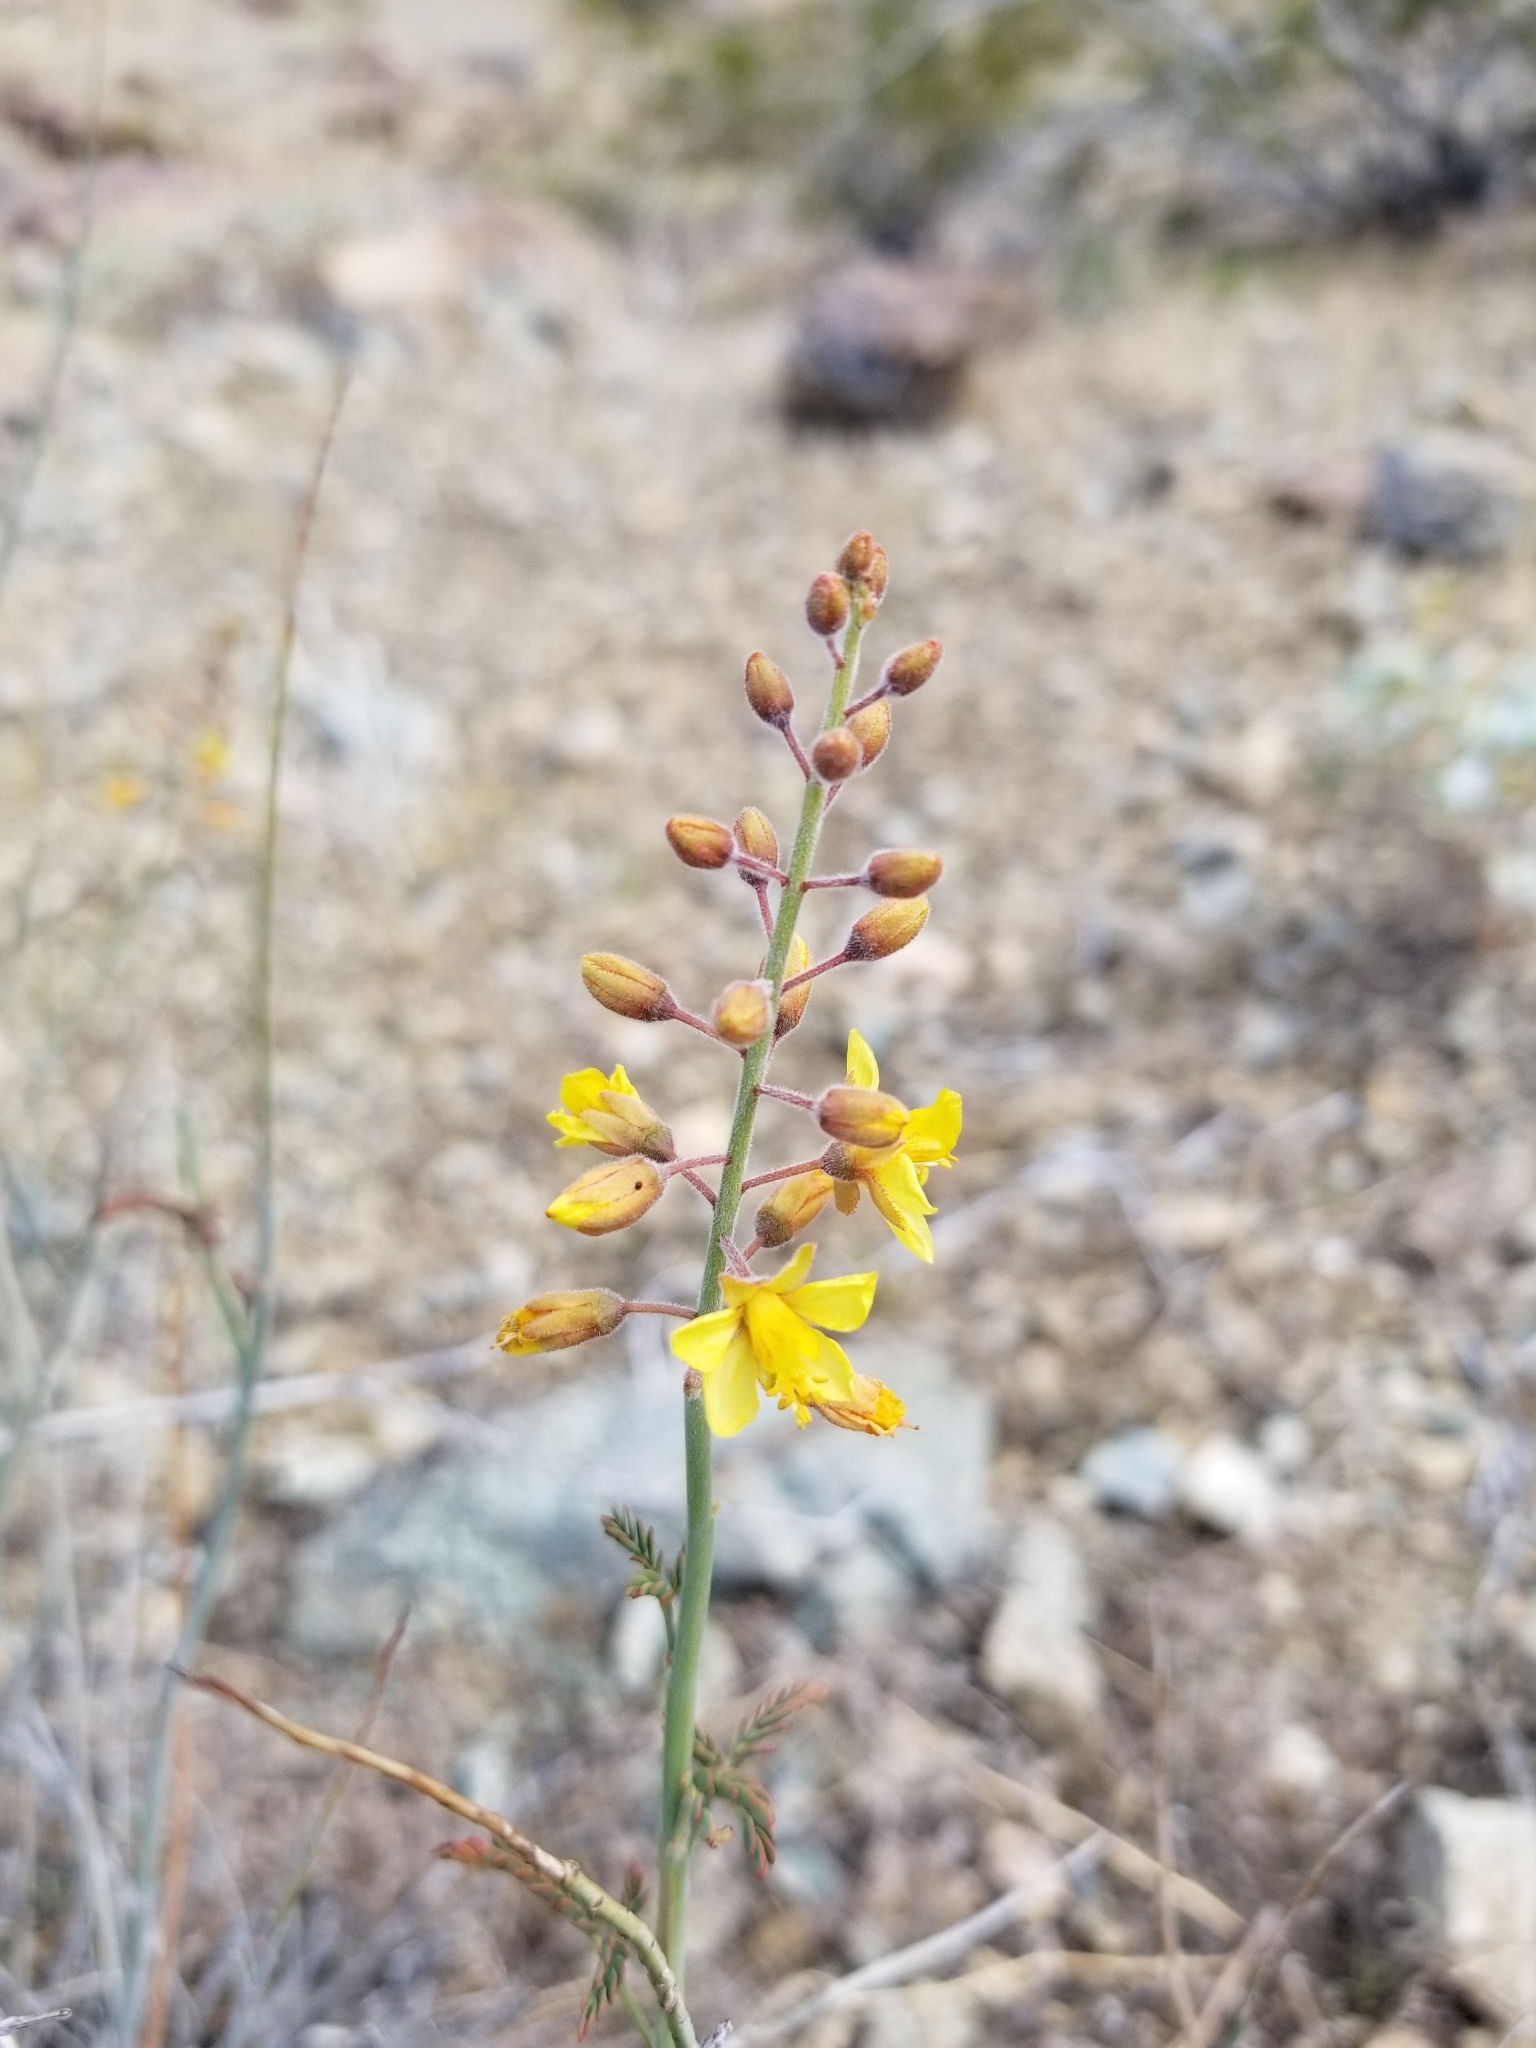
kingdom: Plantae
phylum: Tracheophyta
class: Magnoliopsida
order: Fabales
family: Fabaceae
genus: Hoffmannseggia
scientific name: Hoffmannseggia microphylla
